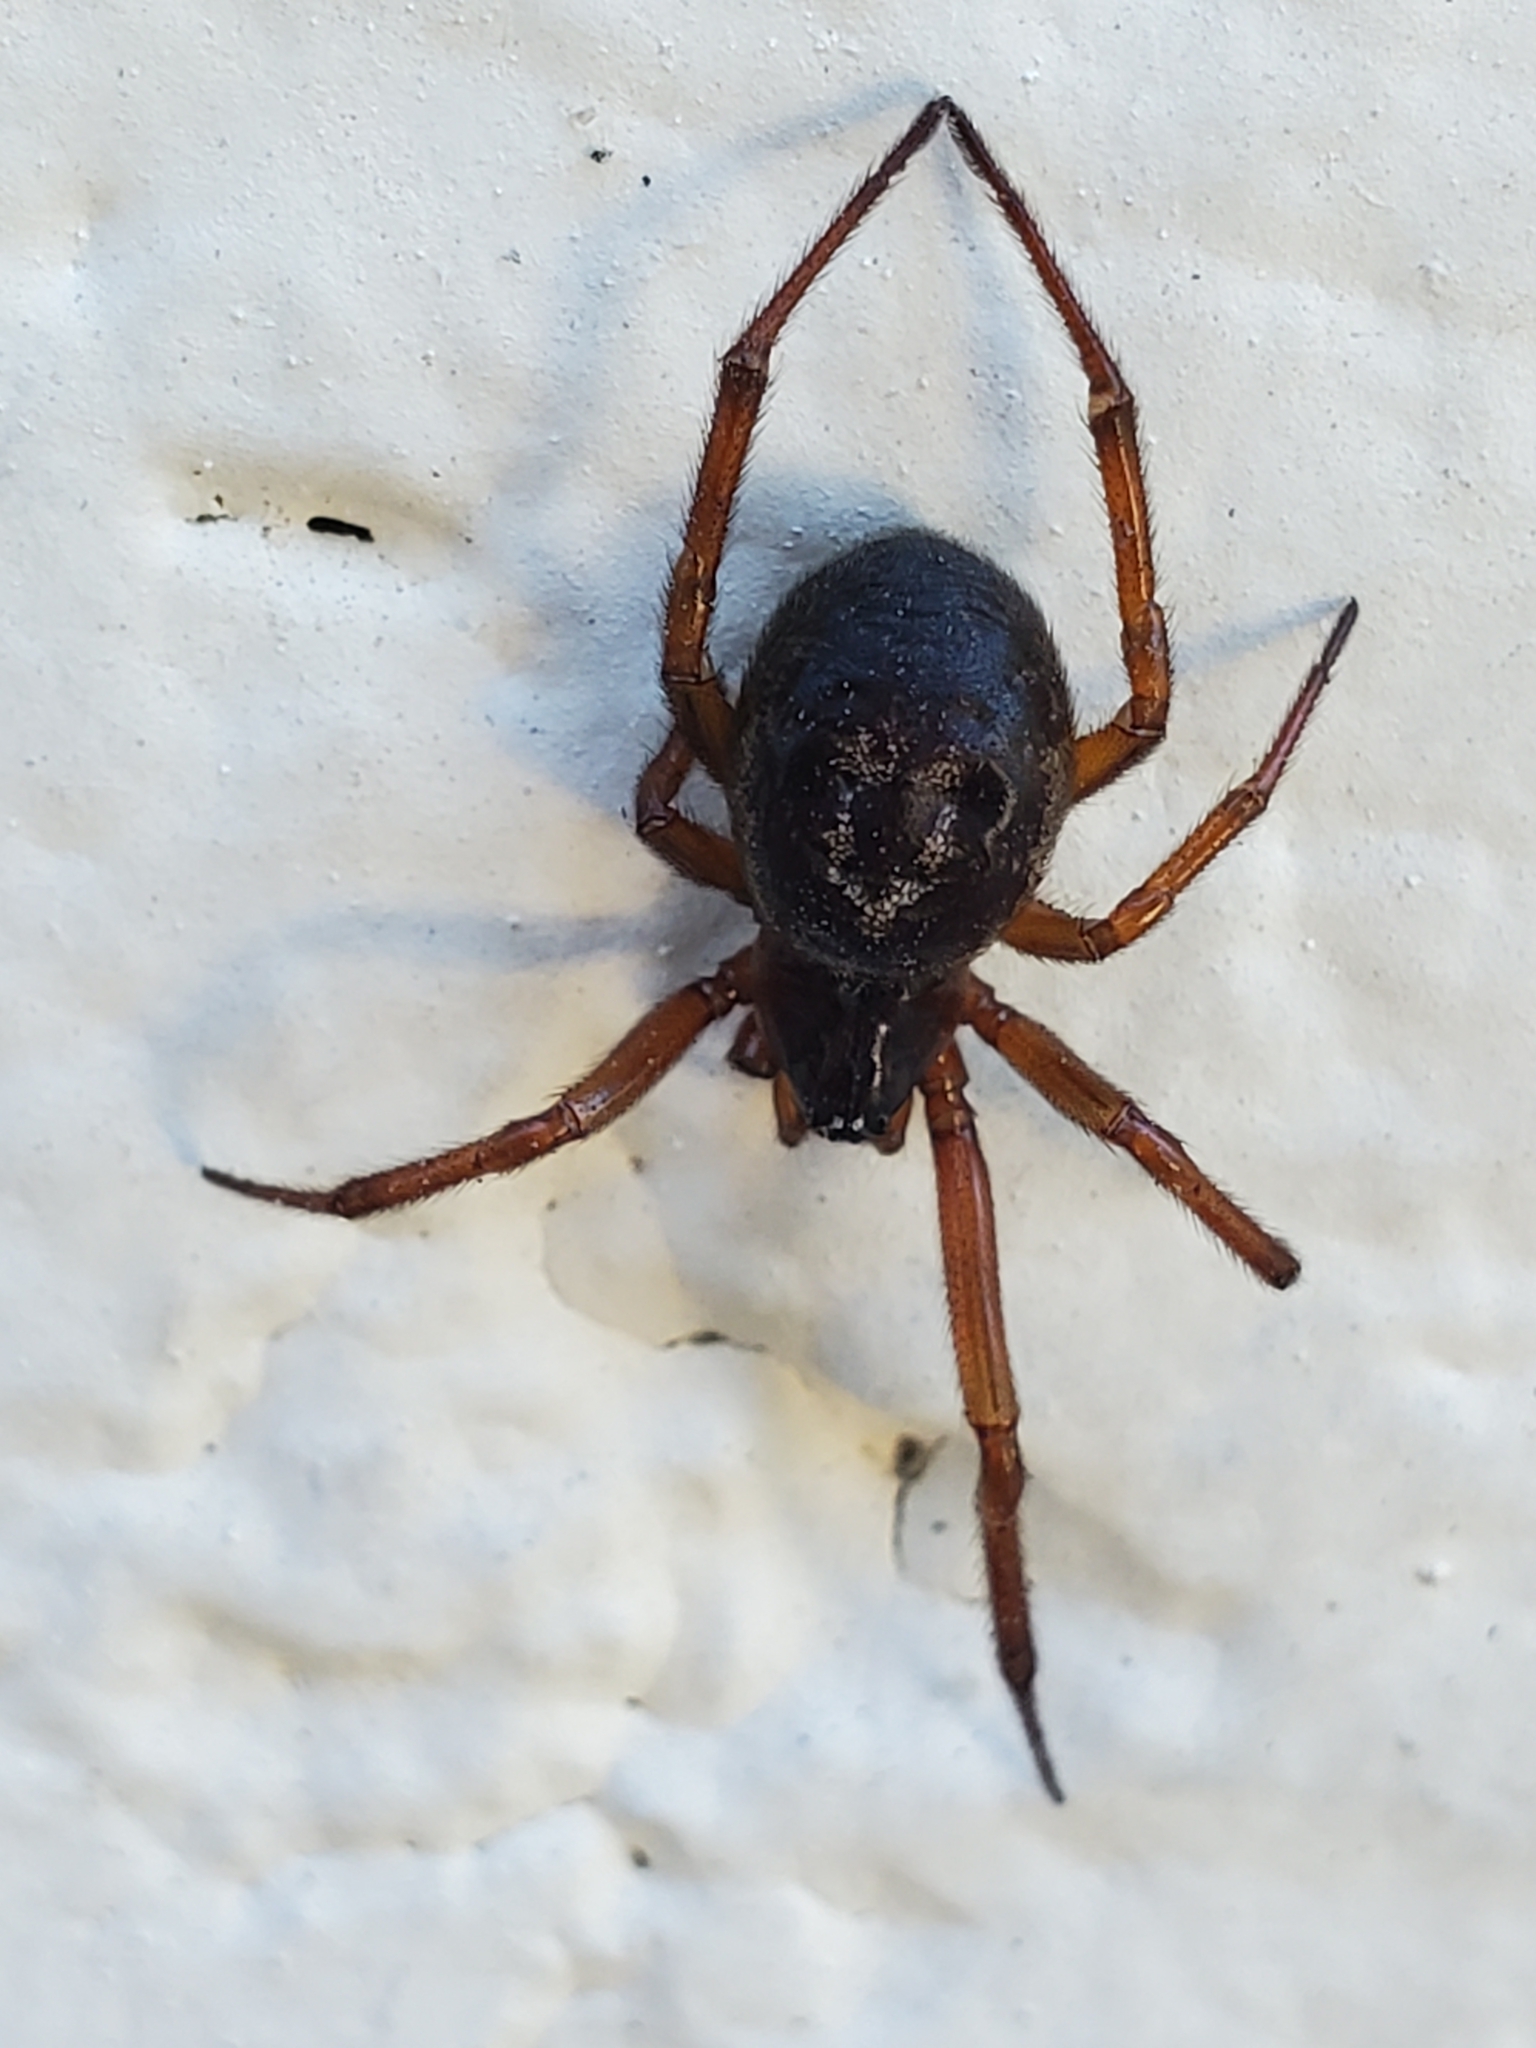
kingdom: Animalia
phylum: Arthropoda
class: Arachnida
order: Araneae
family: Theridiidae
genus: Steatoda
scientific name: Steatoda nobilis
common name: Cobweb weaver
